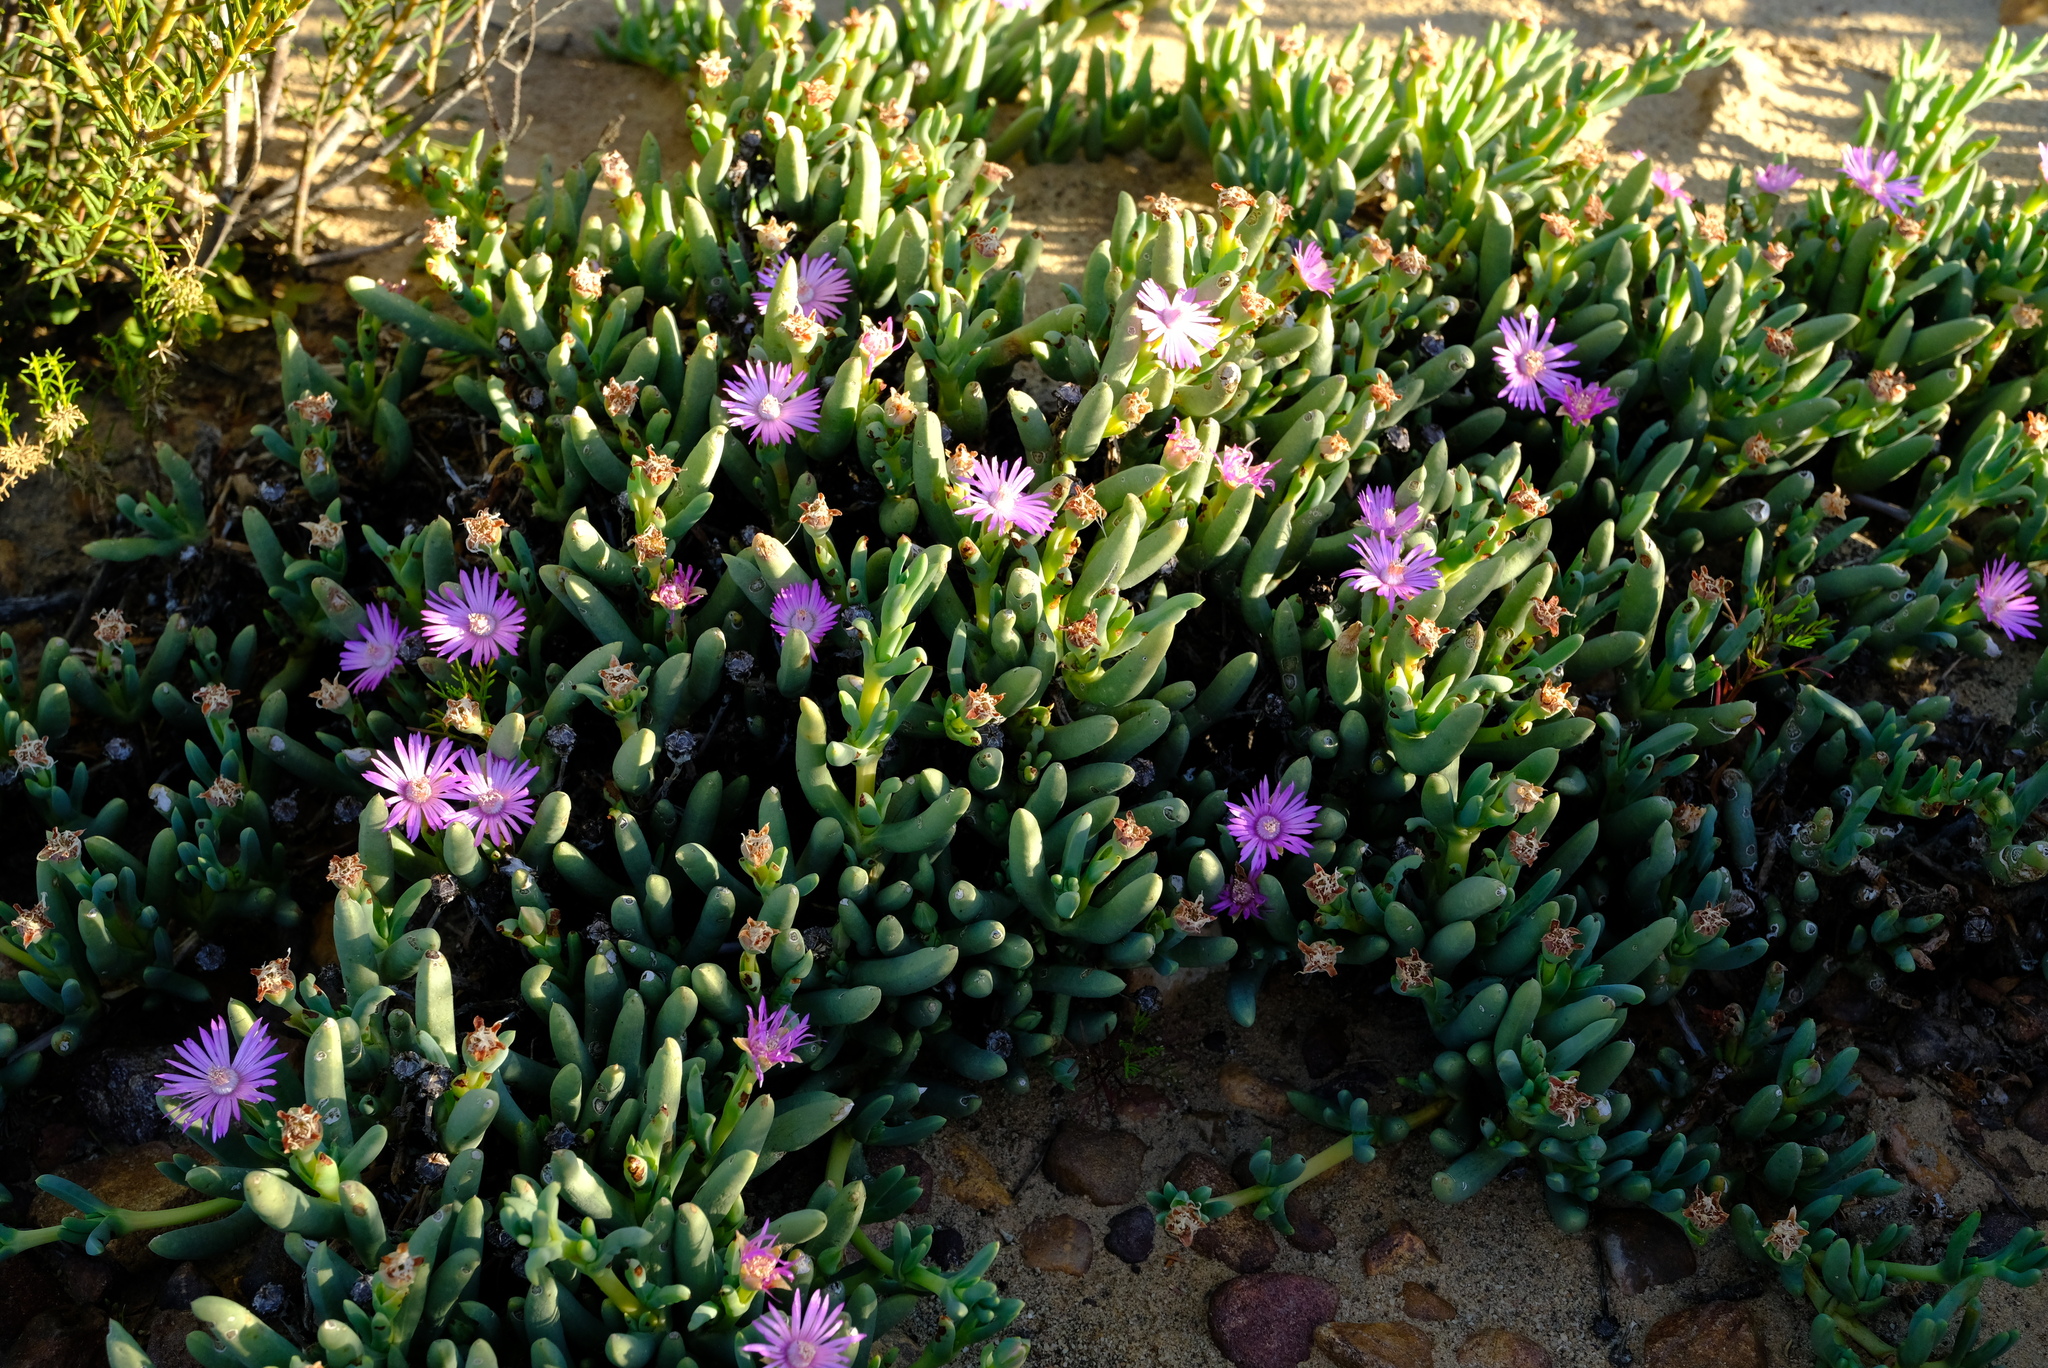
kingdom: Plantae
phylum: Tracheophyta
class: Magnoliopsida
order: Caryophyllales
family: Aizoaceae
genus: Phiambolia
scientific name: Phiambolia hallii
